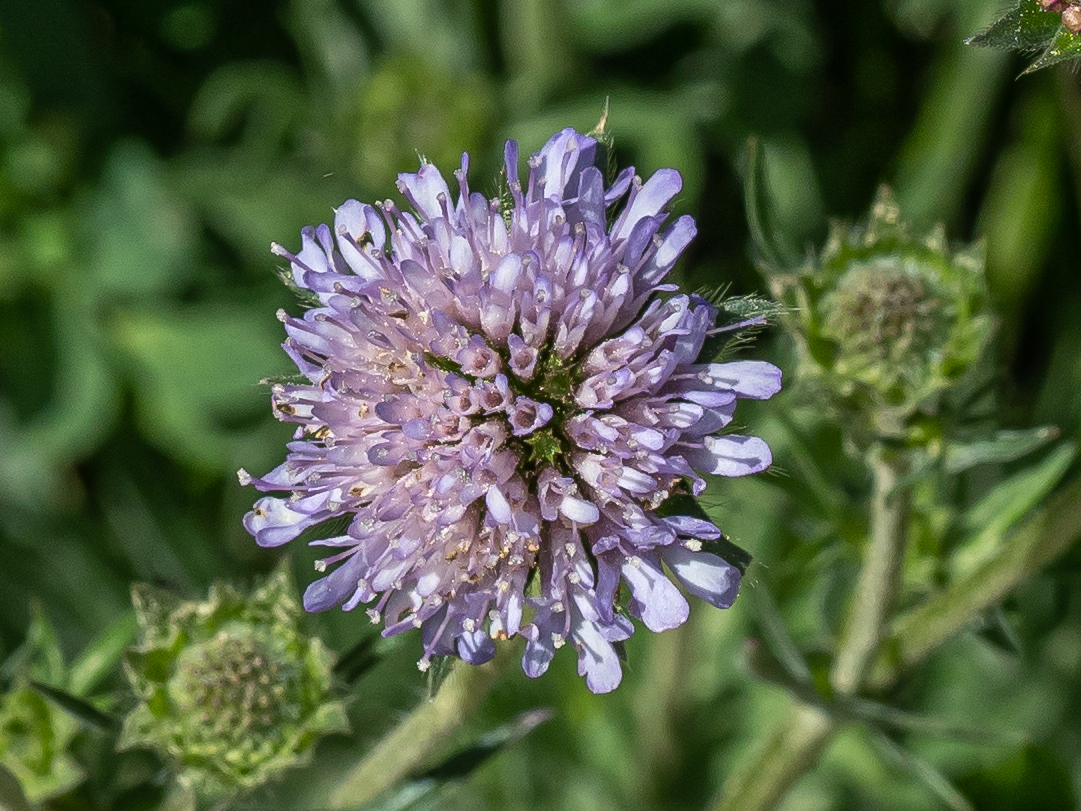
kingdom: Plantae
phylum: Tracheophyta
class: Magnoliopsida
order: Dipsacales
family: Caprifoliaceae
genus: Knautia
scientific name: Knautia arvensis
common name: Field scabiosa
